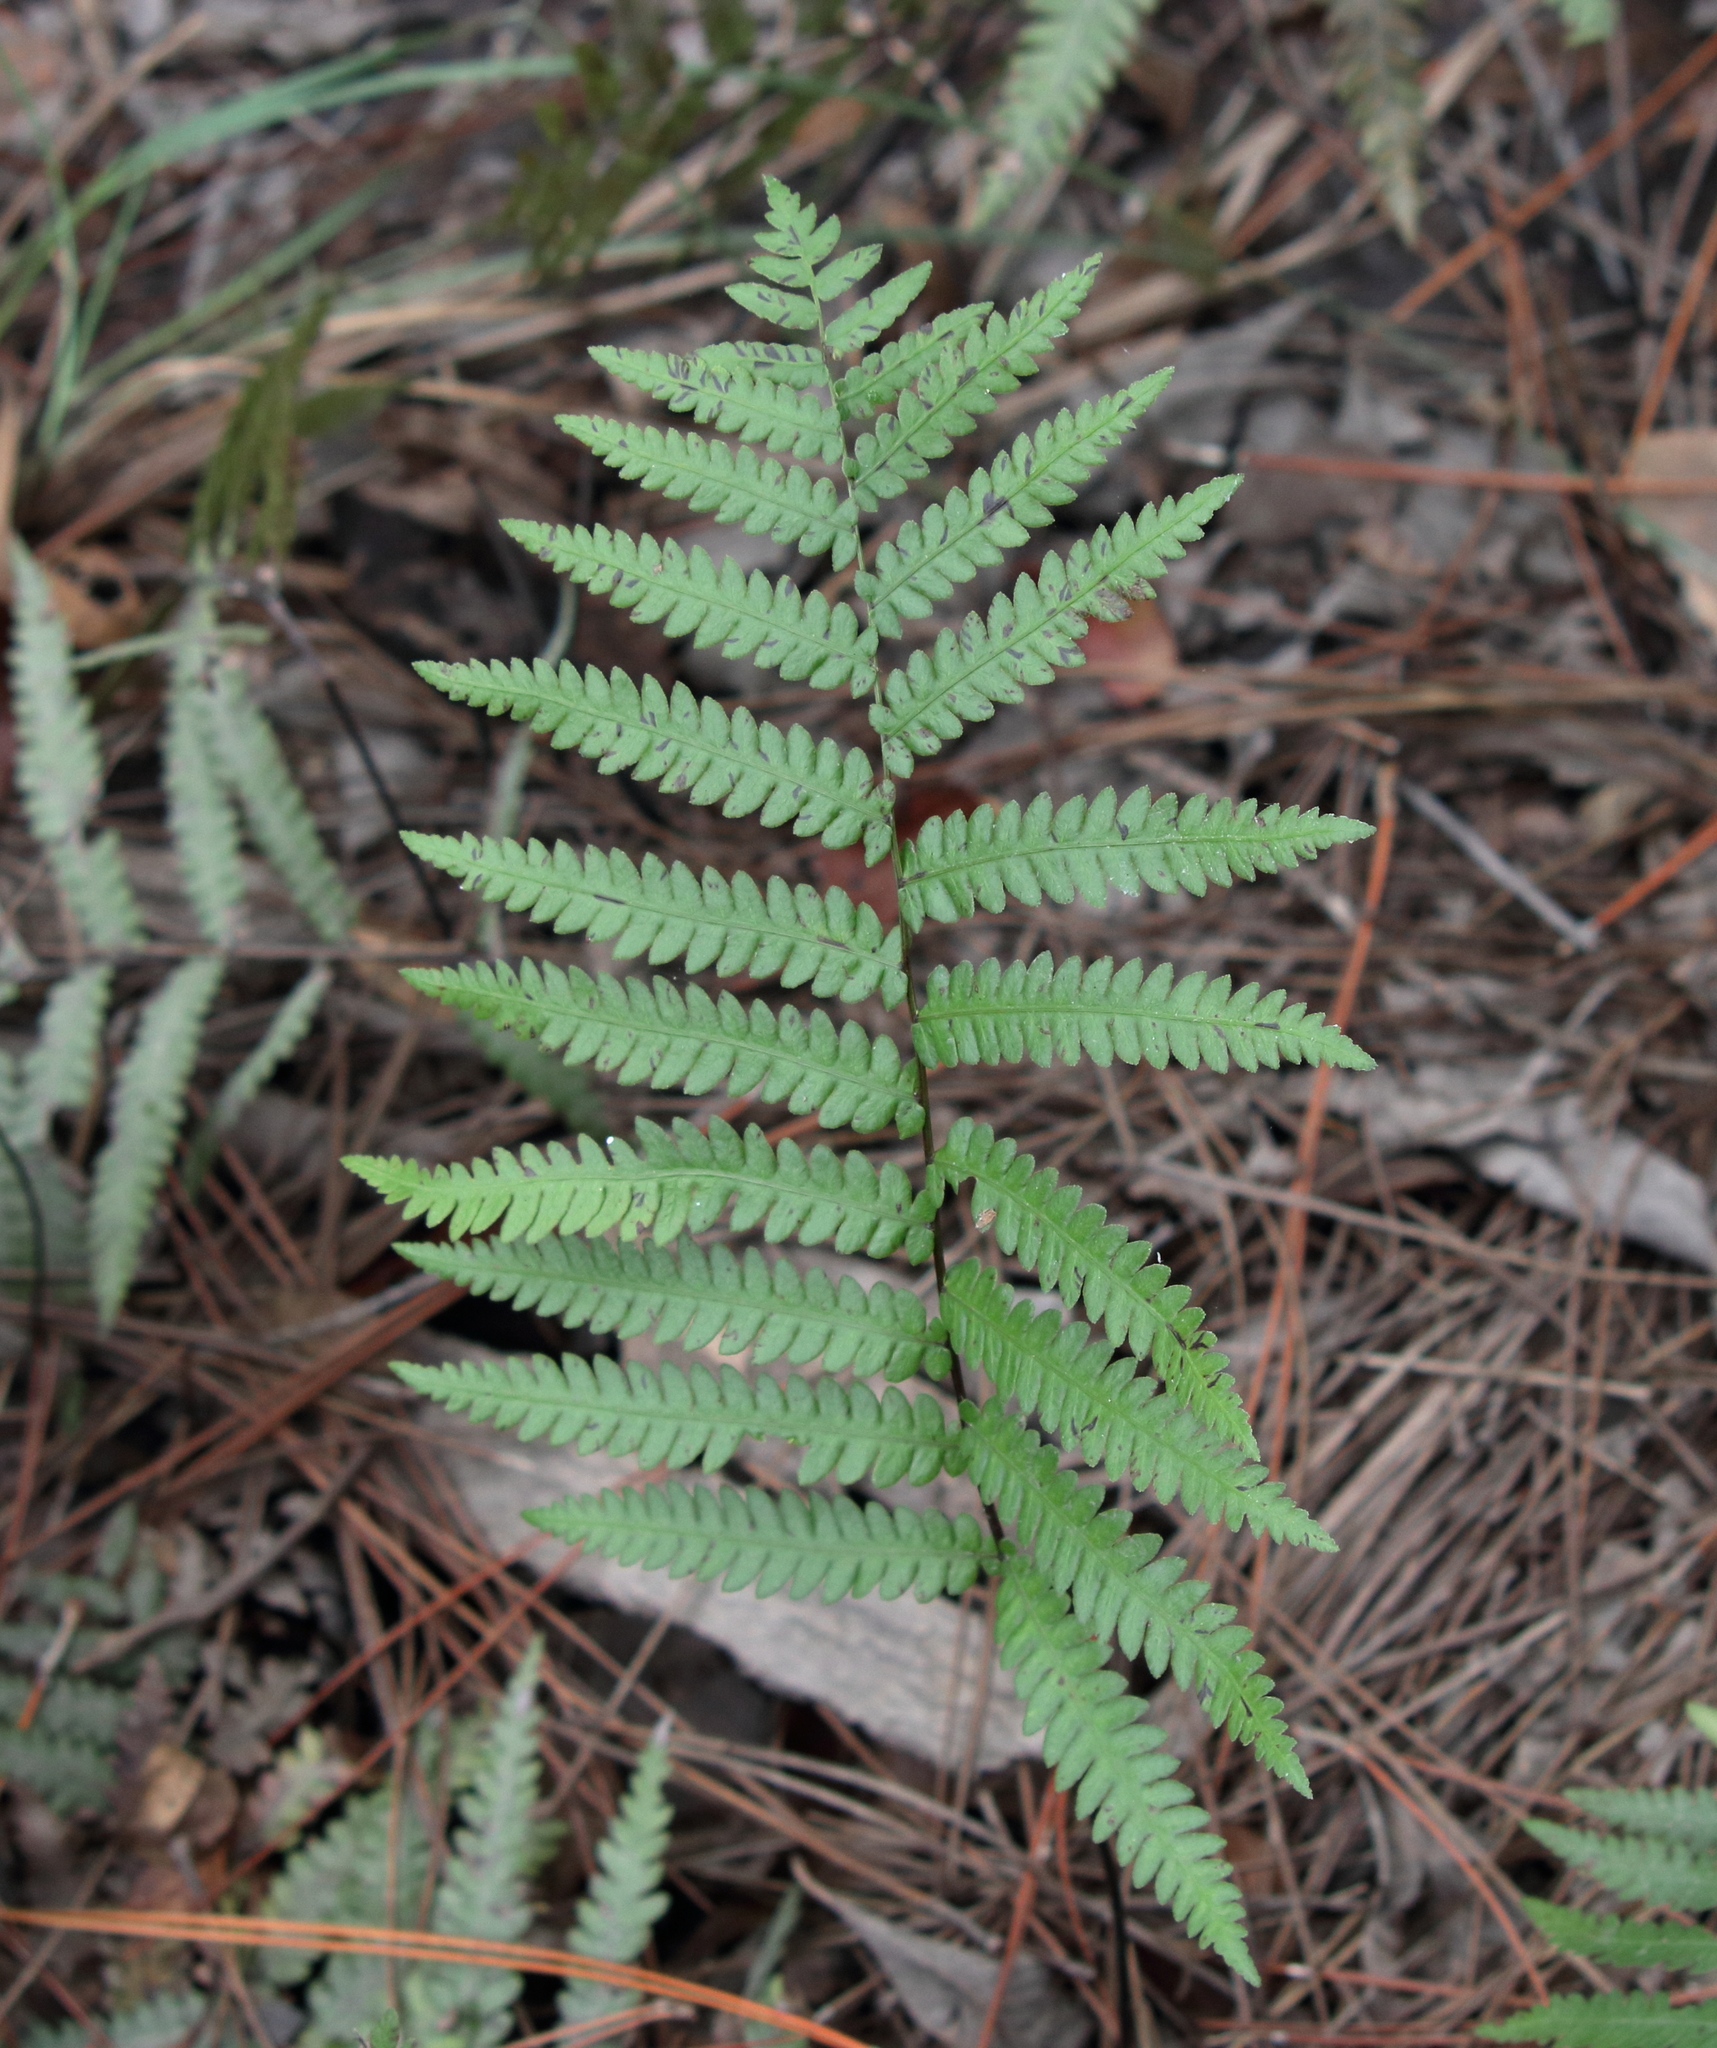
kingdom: Plantae
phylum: Tracheophyta
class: Polypodiopsida
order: Polypodiales
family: Blechnaceae
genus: Anchistea
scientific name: Anchistea virginica
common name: Virginia chain fern
